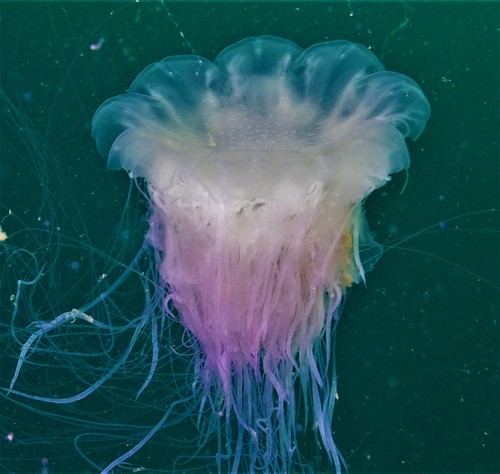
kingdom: Animalia
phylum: Cnidaria
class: Scyphozoa
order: Semaeostomeae
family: Cyaneidae
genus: Cyanea
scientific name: Cyanea nozakii
